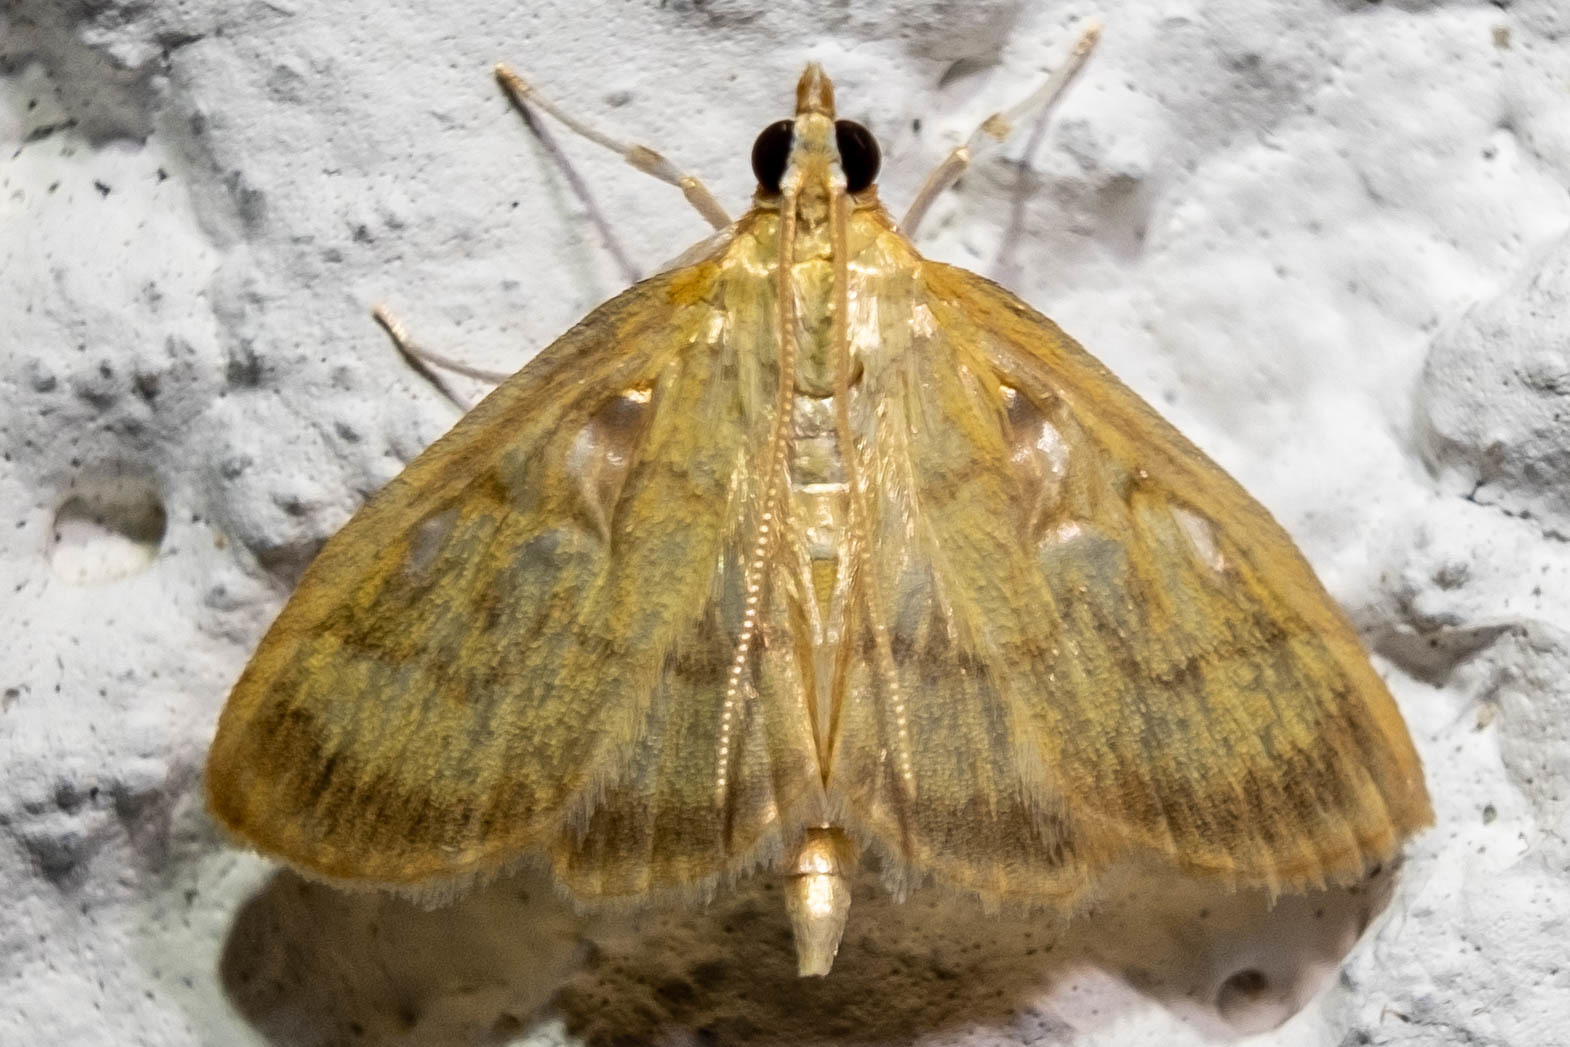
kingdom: Animalia
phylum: Arthropoda
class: Insecta
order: Lepidoptera
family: Crambidae
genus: Crocidophora
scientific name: Crocidophora tuberculalis
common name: Pale-winged crocidiphora moth
